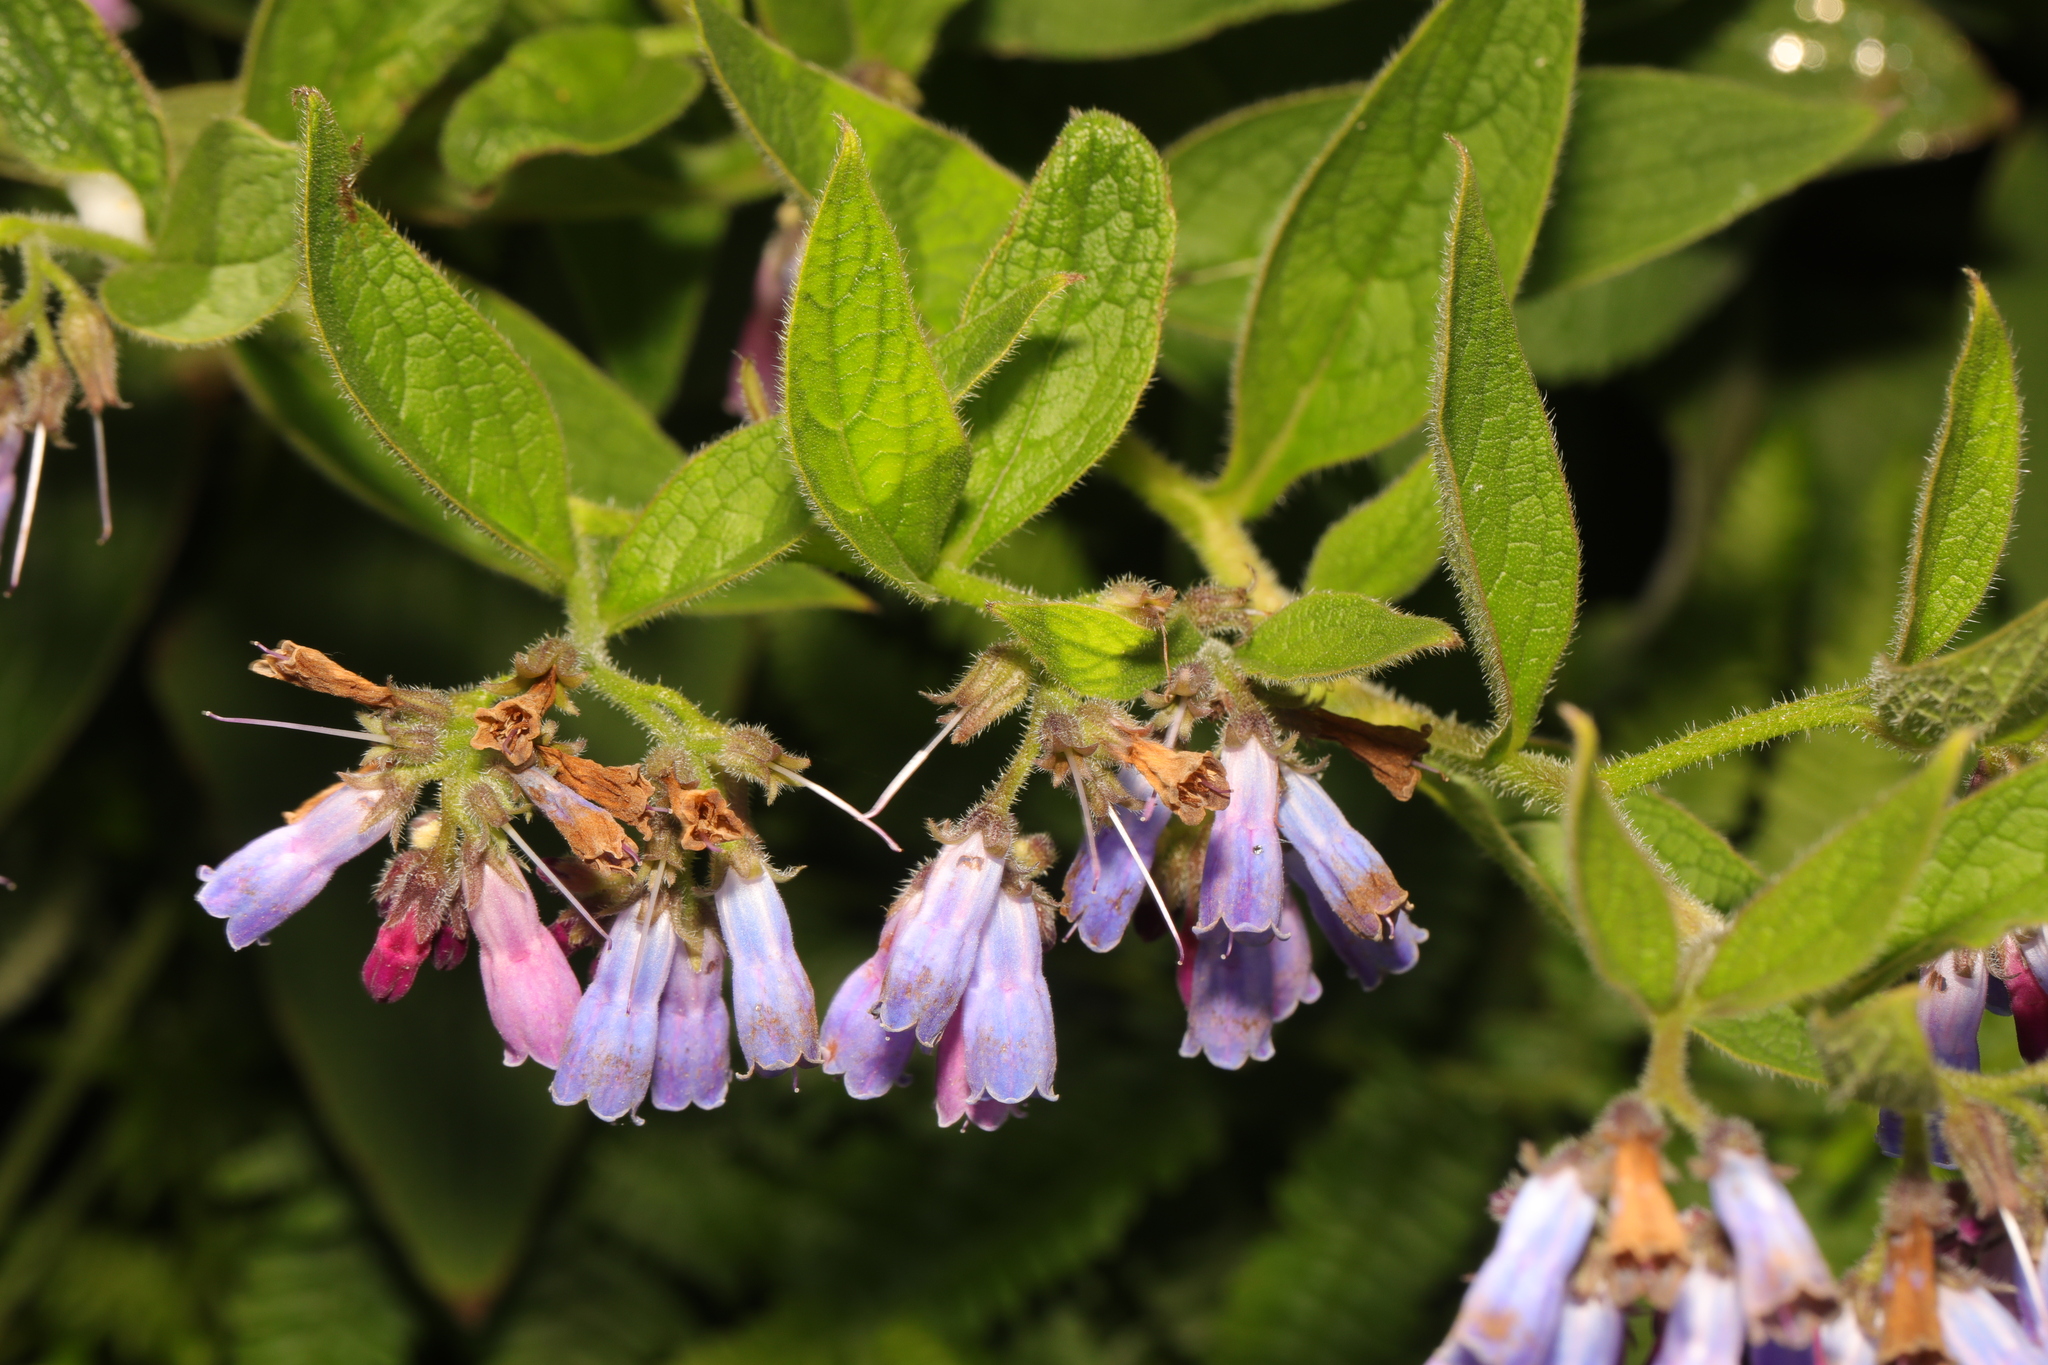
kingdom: Plantae
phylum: Tracheophyta
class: Magnoliopsida
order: Boraginales
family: Boraginaceae
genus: Symphytum
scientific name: Symphytum officinale
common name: Common comfrey
